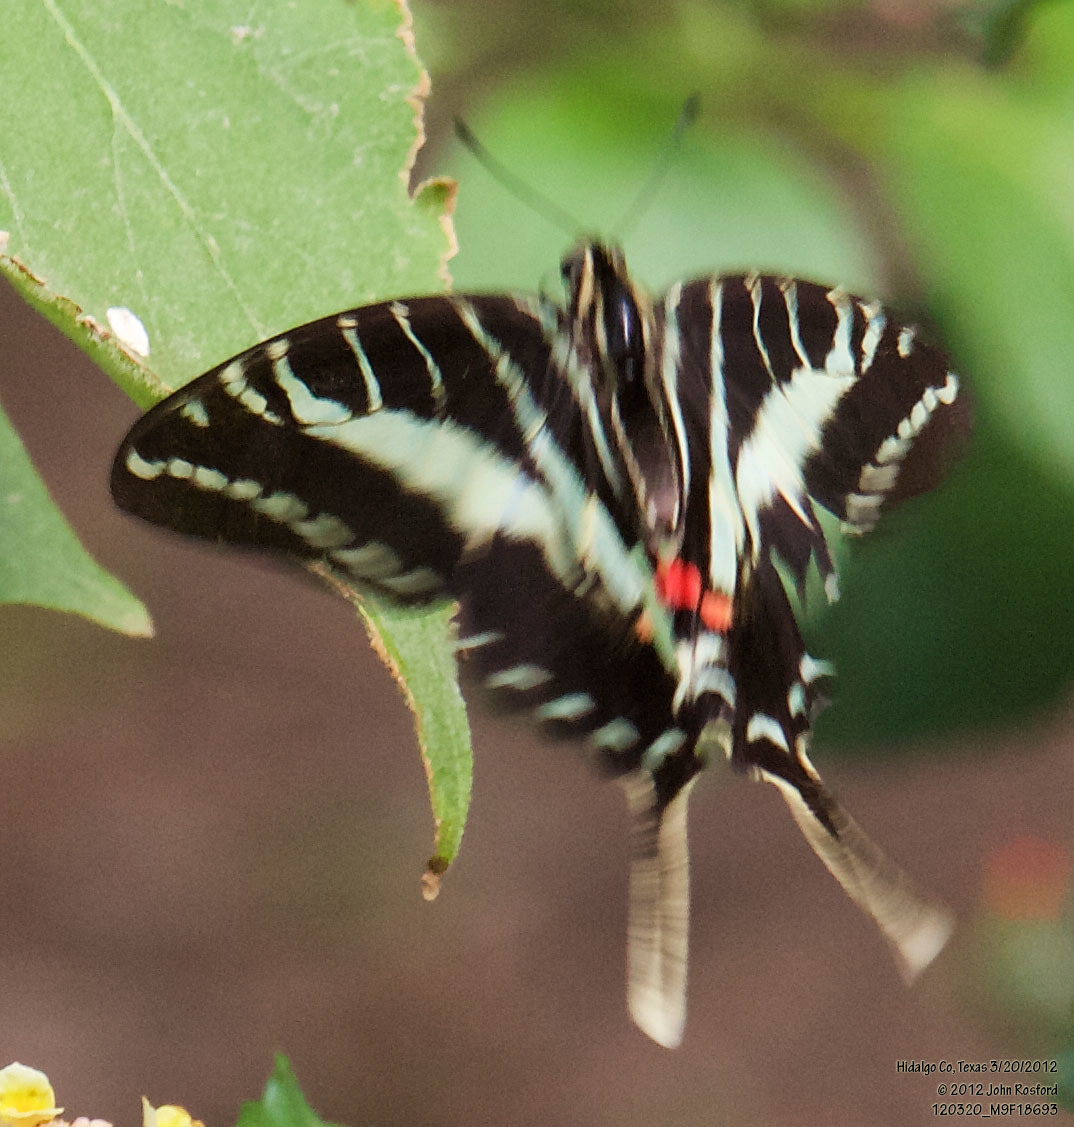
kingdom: Animalia
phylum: Arthropoda
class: Insecta
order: Lepidoptera
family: Papilionidae
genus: Protographium
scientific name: Protographium philolaus
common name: Dark zebra swallowtail
